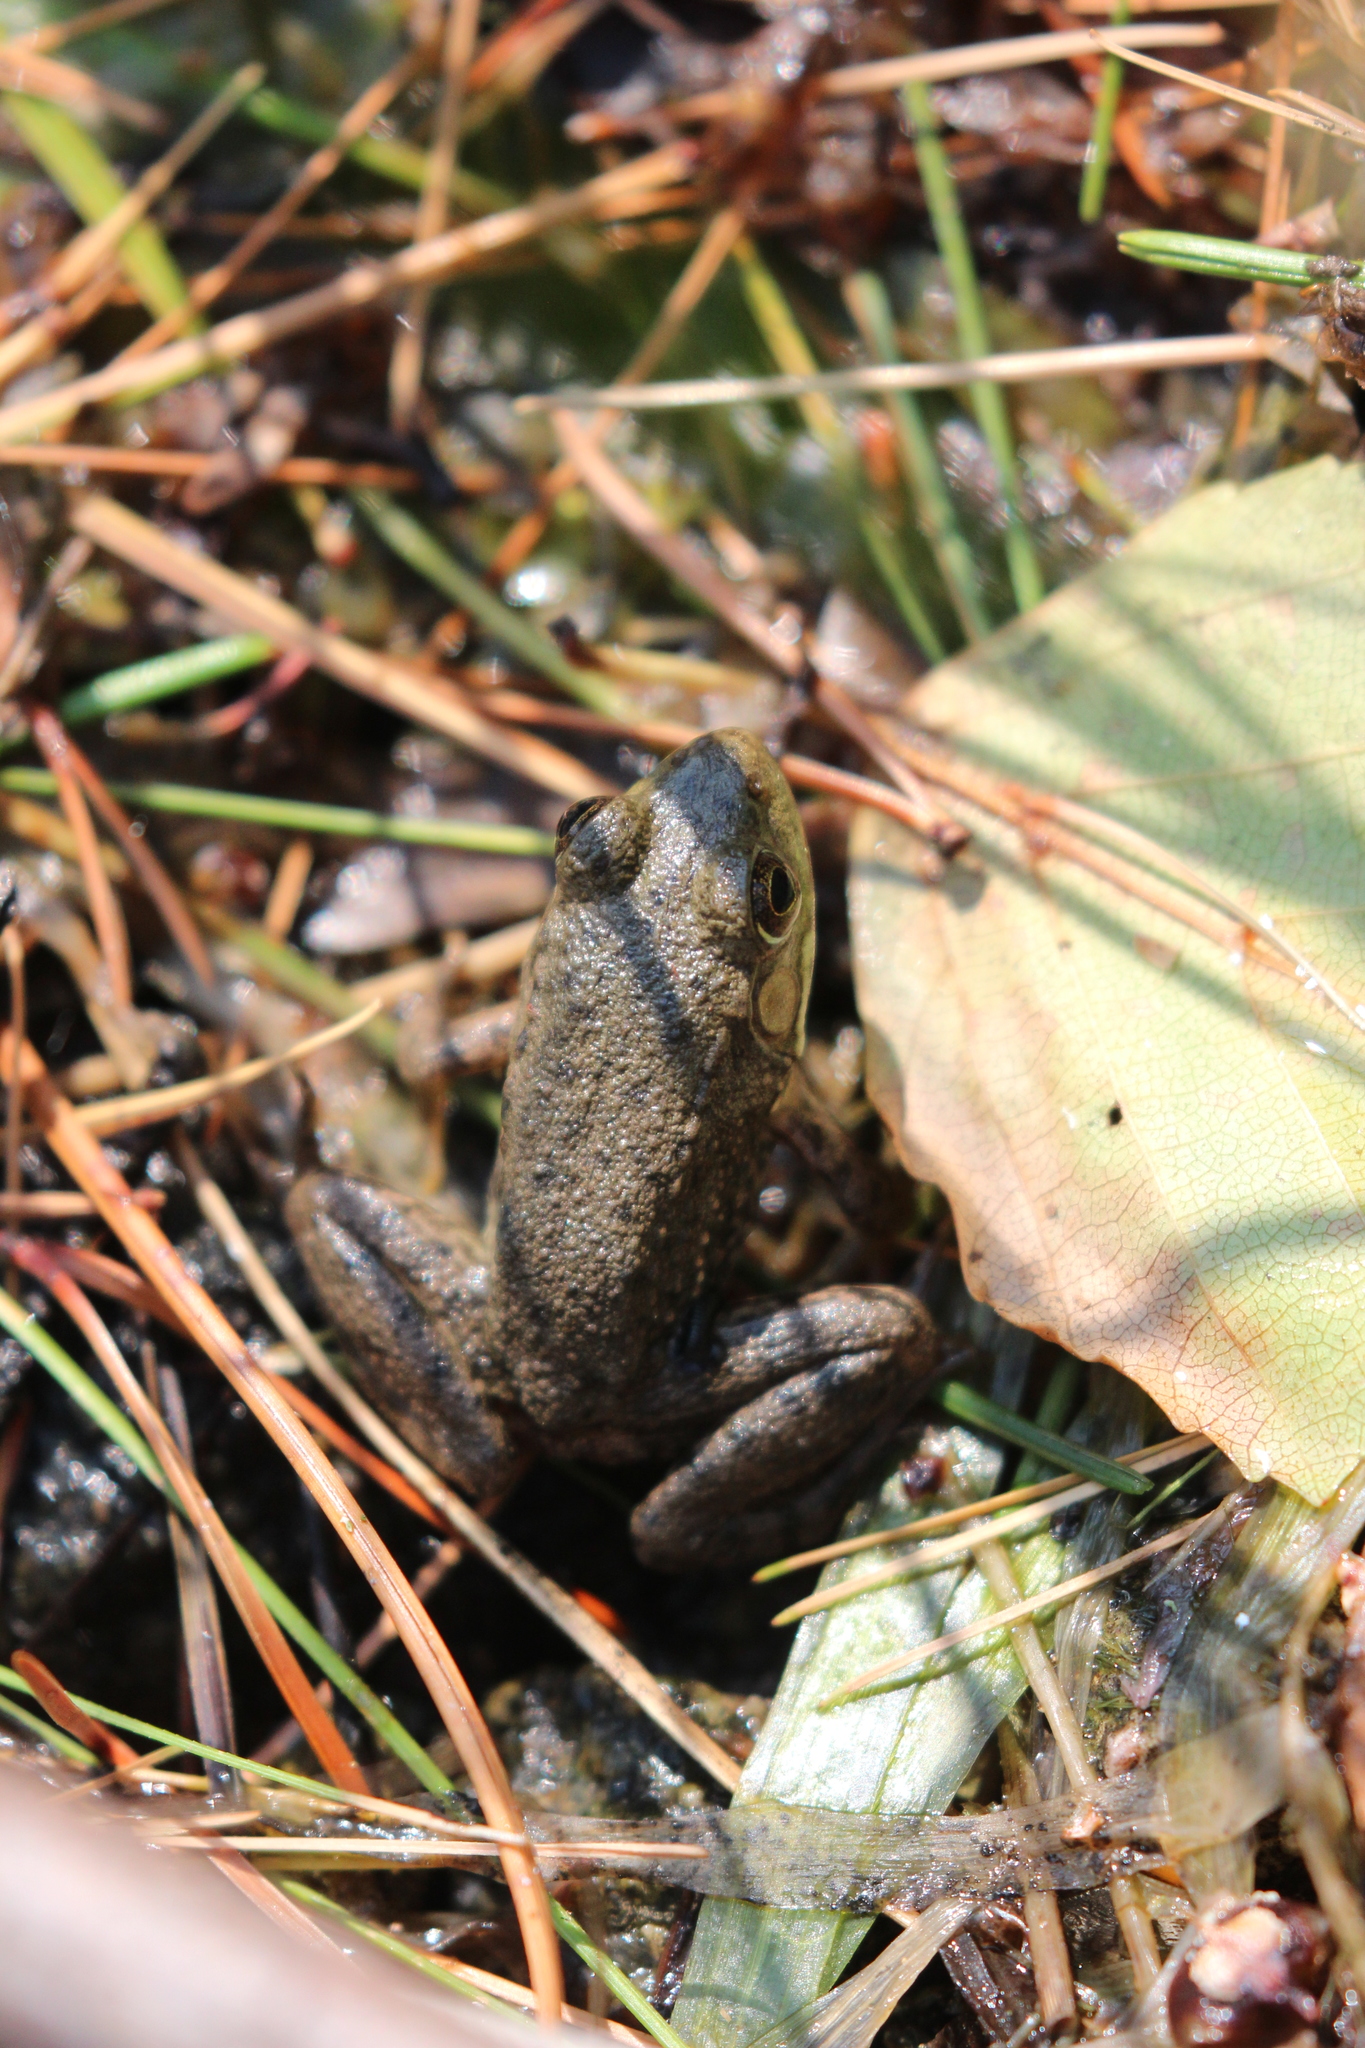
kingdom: Animalia
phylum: Chordata
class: Amphibia
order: Anura
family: Ranidae
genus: Lithobates
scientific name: Lithobates clamitans
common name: Green frog
